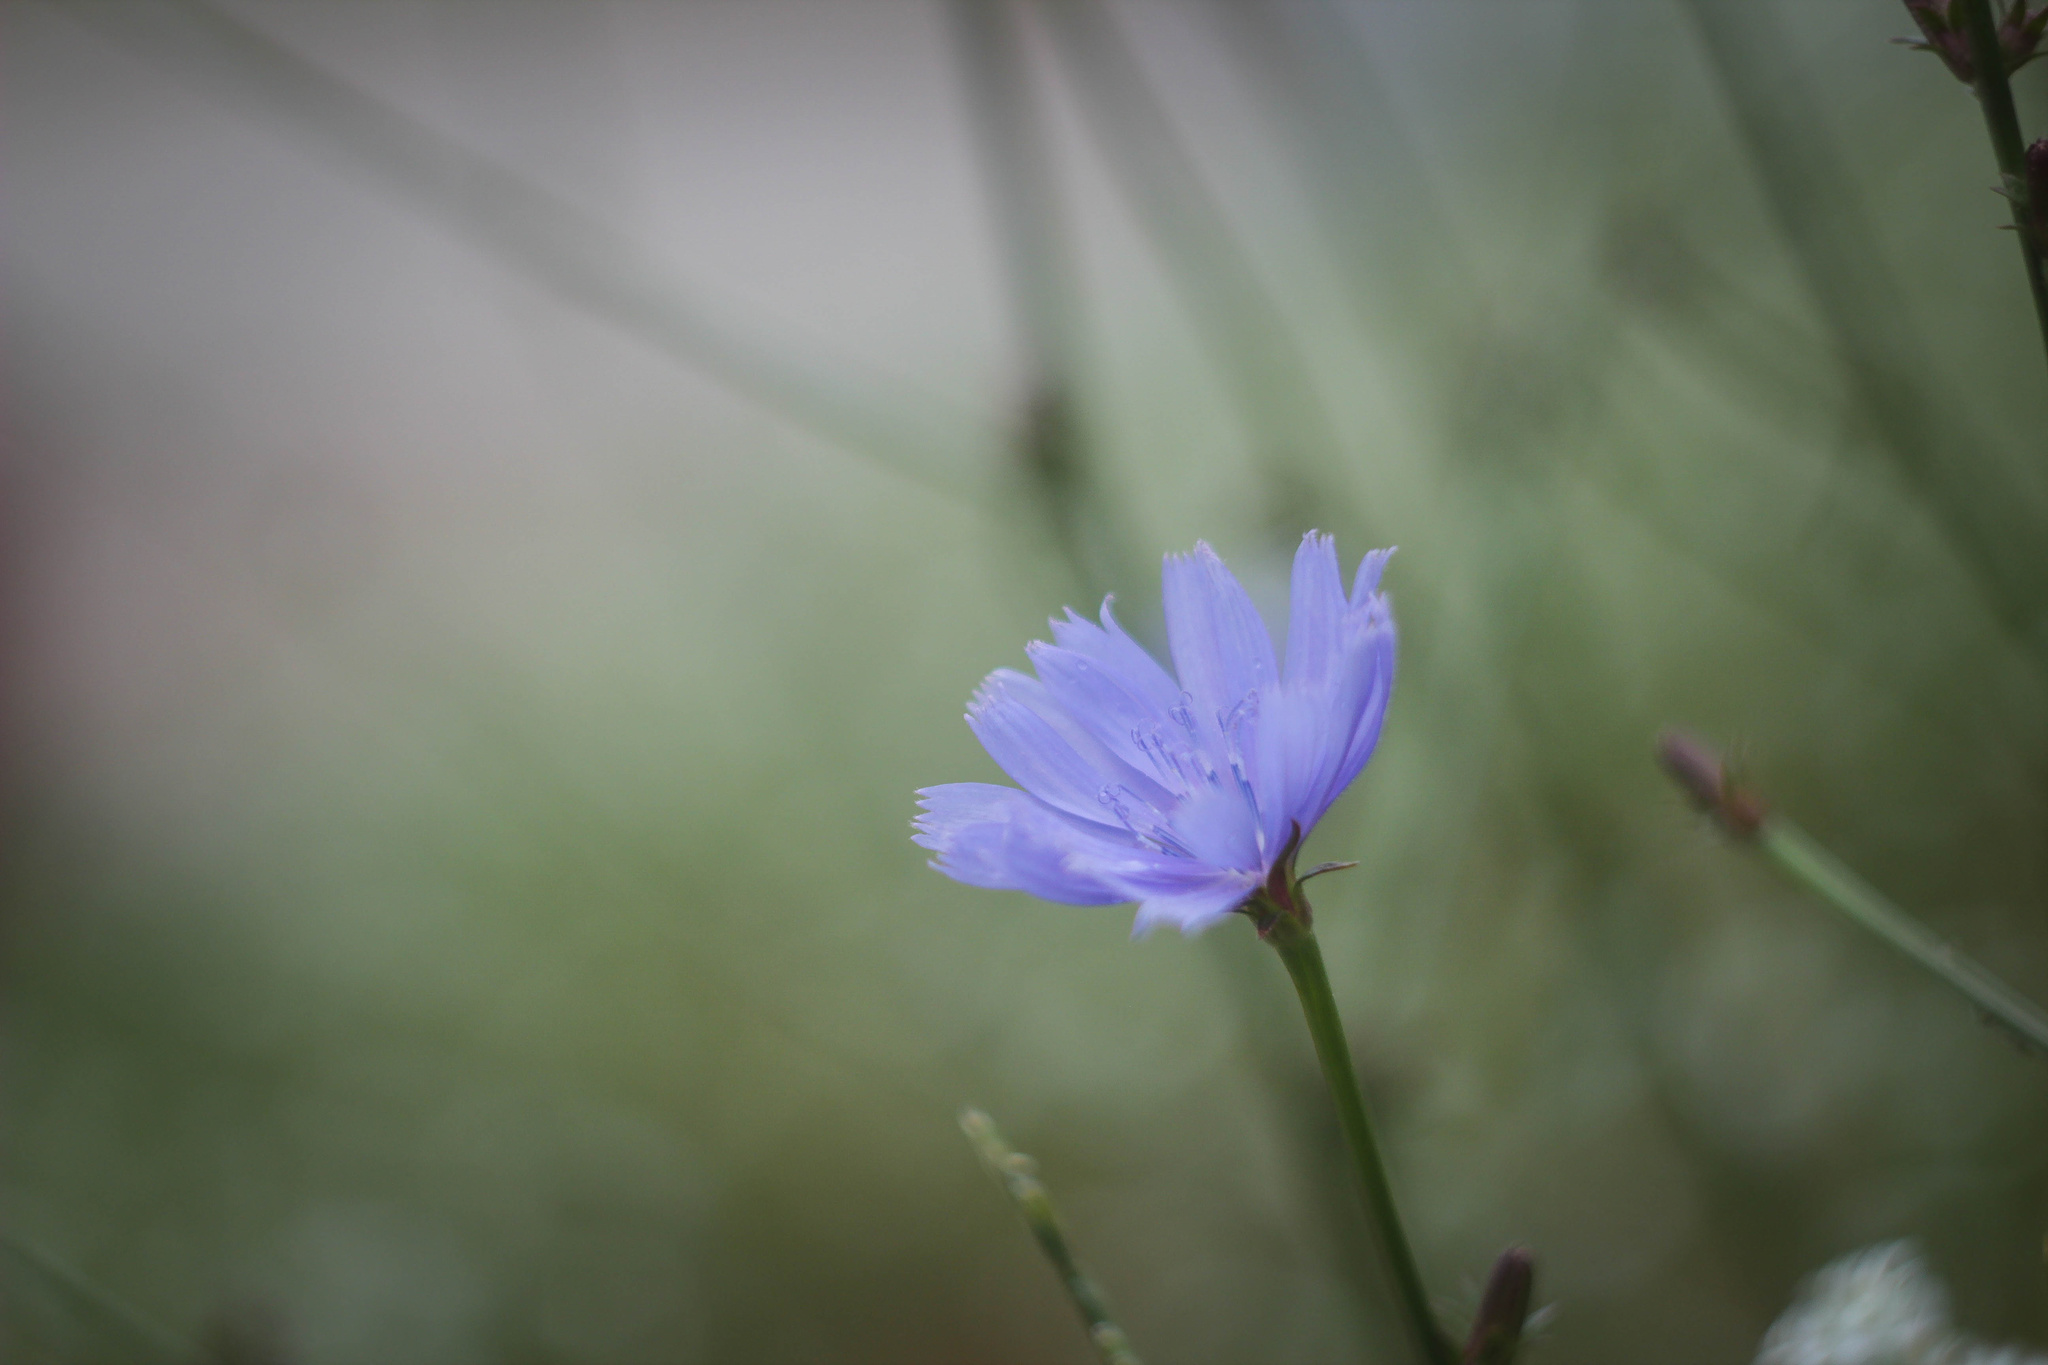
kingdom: Plantae
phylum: Tracheophyta
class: Magnoliopsida
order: Asterales
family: Asteraceae
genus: Cichorium
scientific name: Cichorium intybus
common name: Chicory
